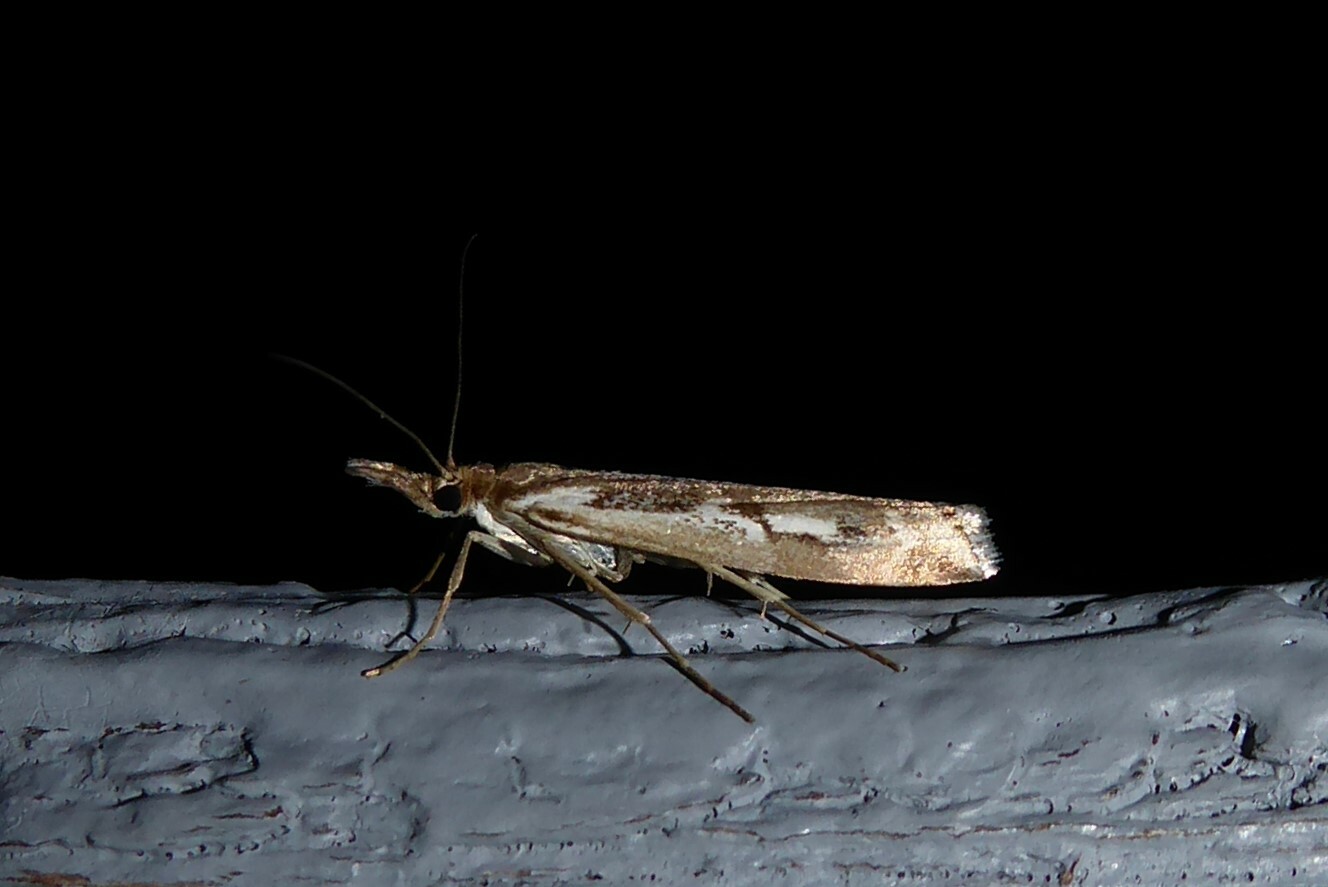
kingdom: Animalia
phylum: Arthropoda
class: Insecta
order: Lepidoptera
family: Crambidae
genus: Orocrambus
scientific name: Orocrambus vulgaris
